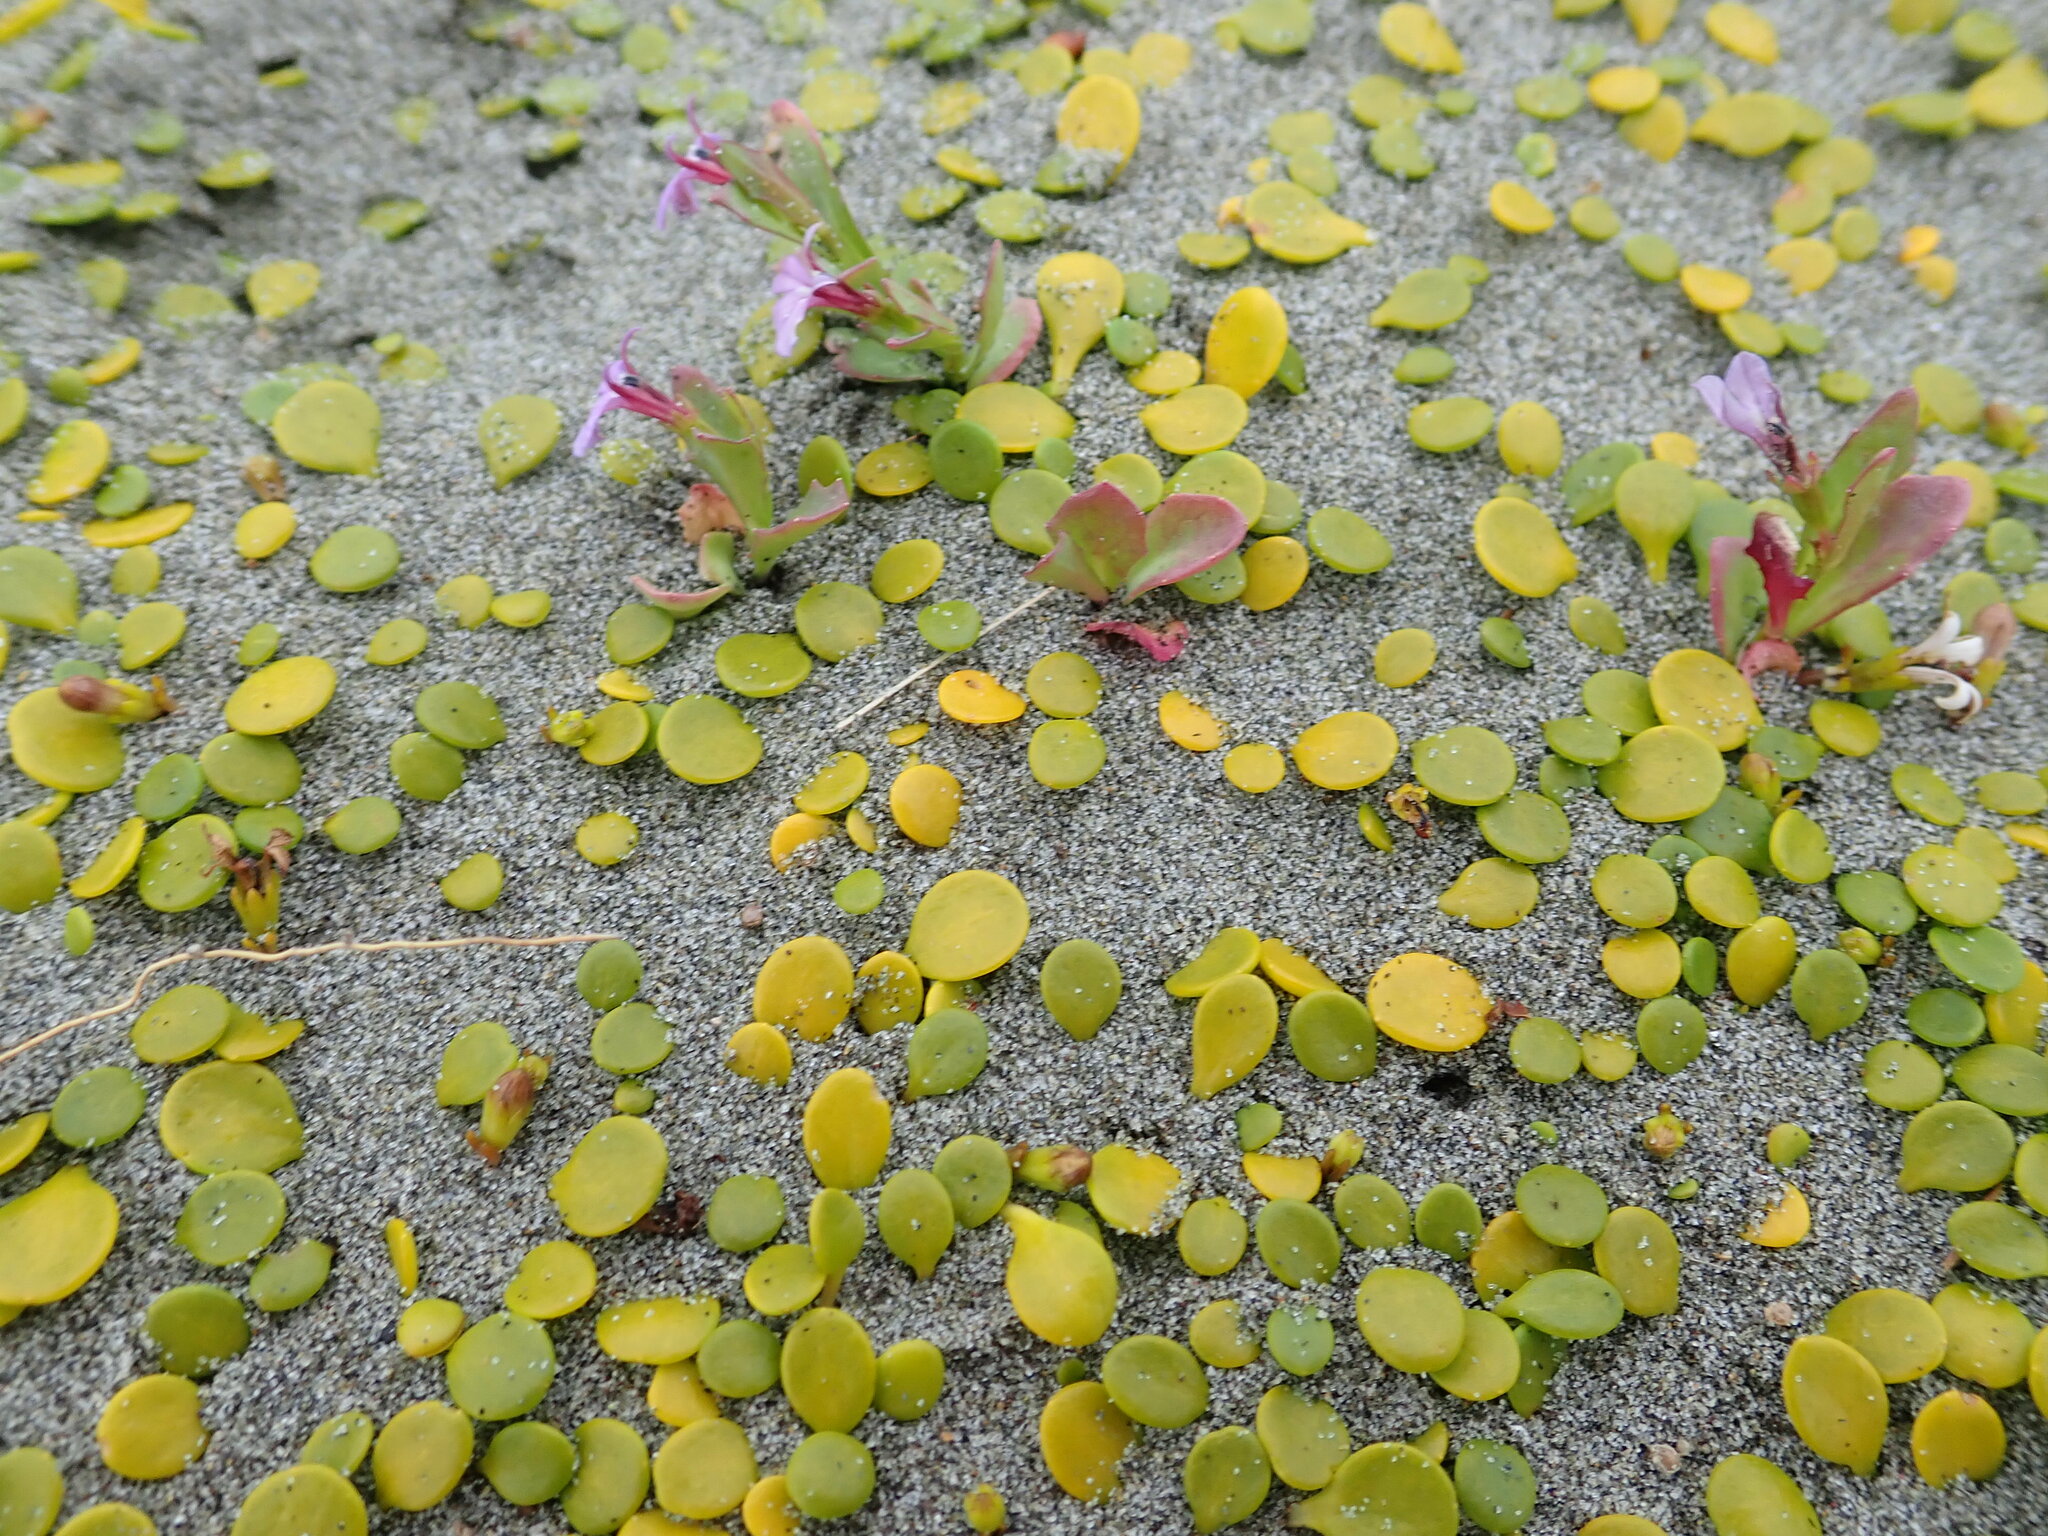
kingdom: Plantae
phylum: Tracheophyta
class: Magnoliopsida
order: Asterales
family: Campanulaceae
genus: Lobelia
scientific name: Lobelia anceps
